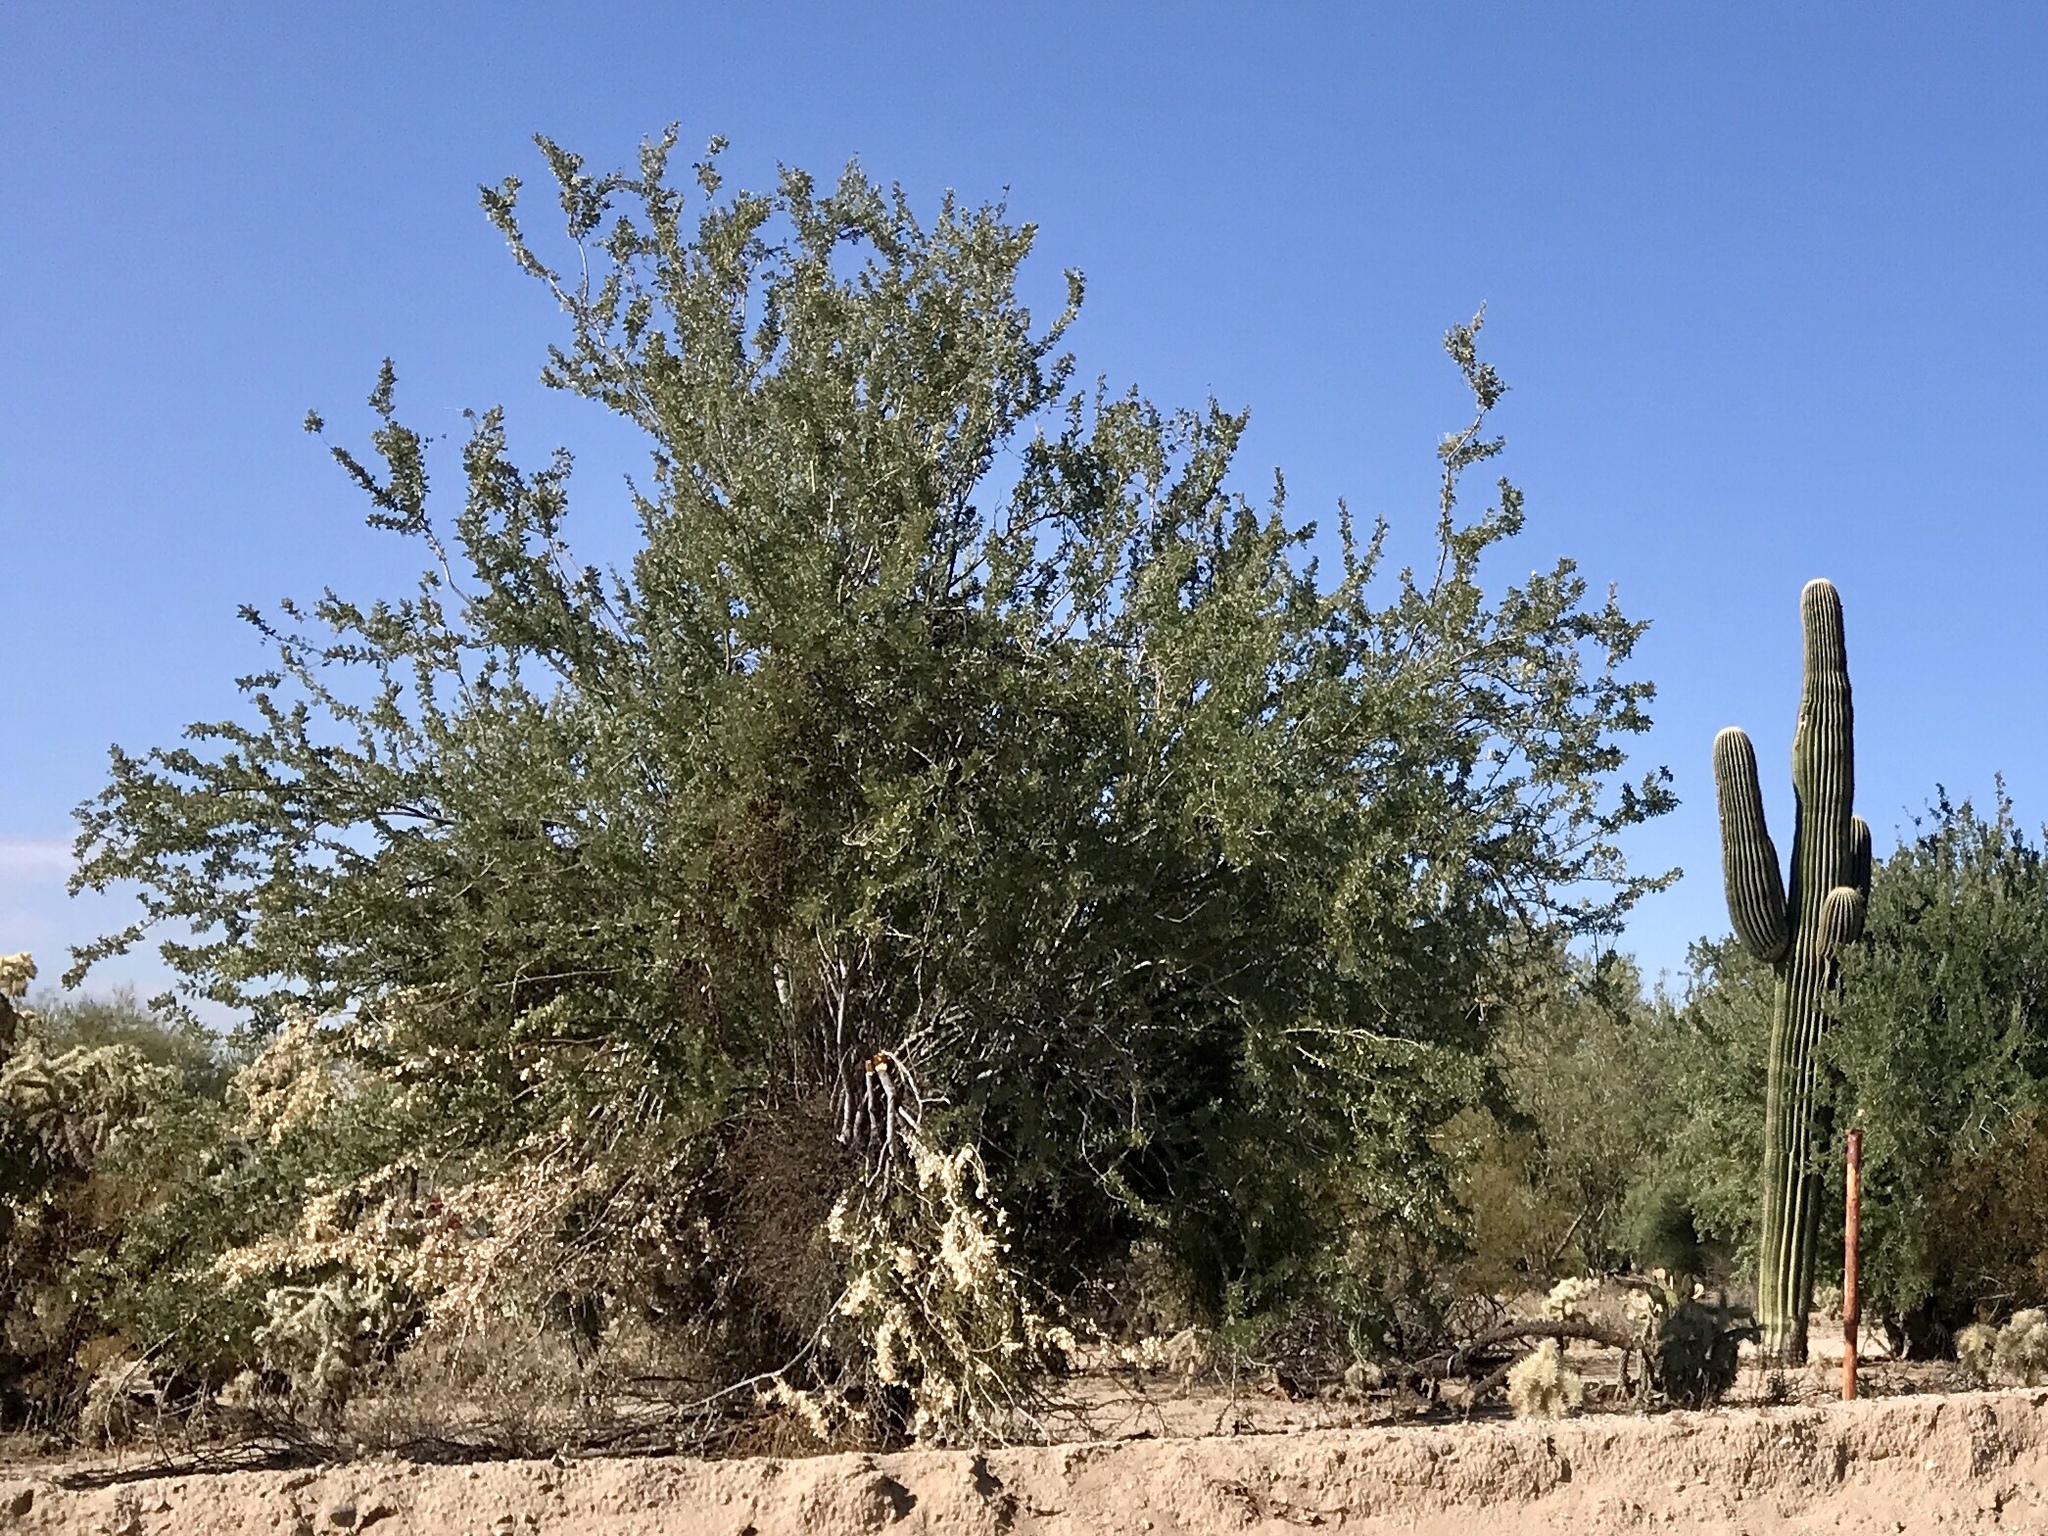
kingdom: Plantae
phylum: Tracheophyta
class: Magnoliopsida
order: Fabales
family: Fabaceae
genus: Olneya
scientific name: Olneya tesota
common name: Desert ironwood
